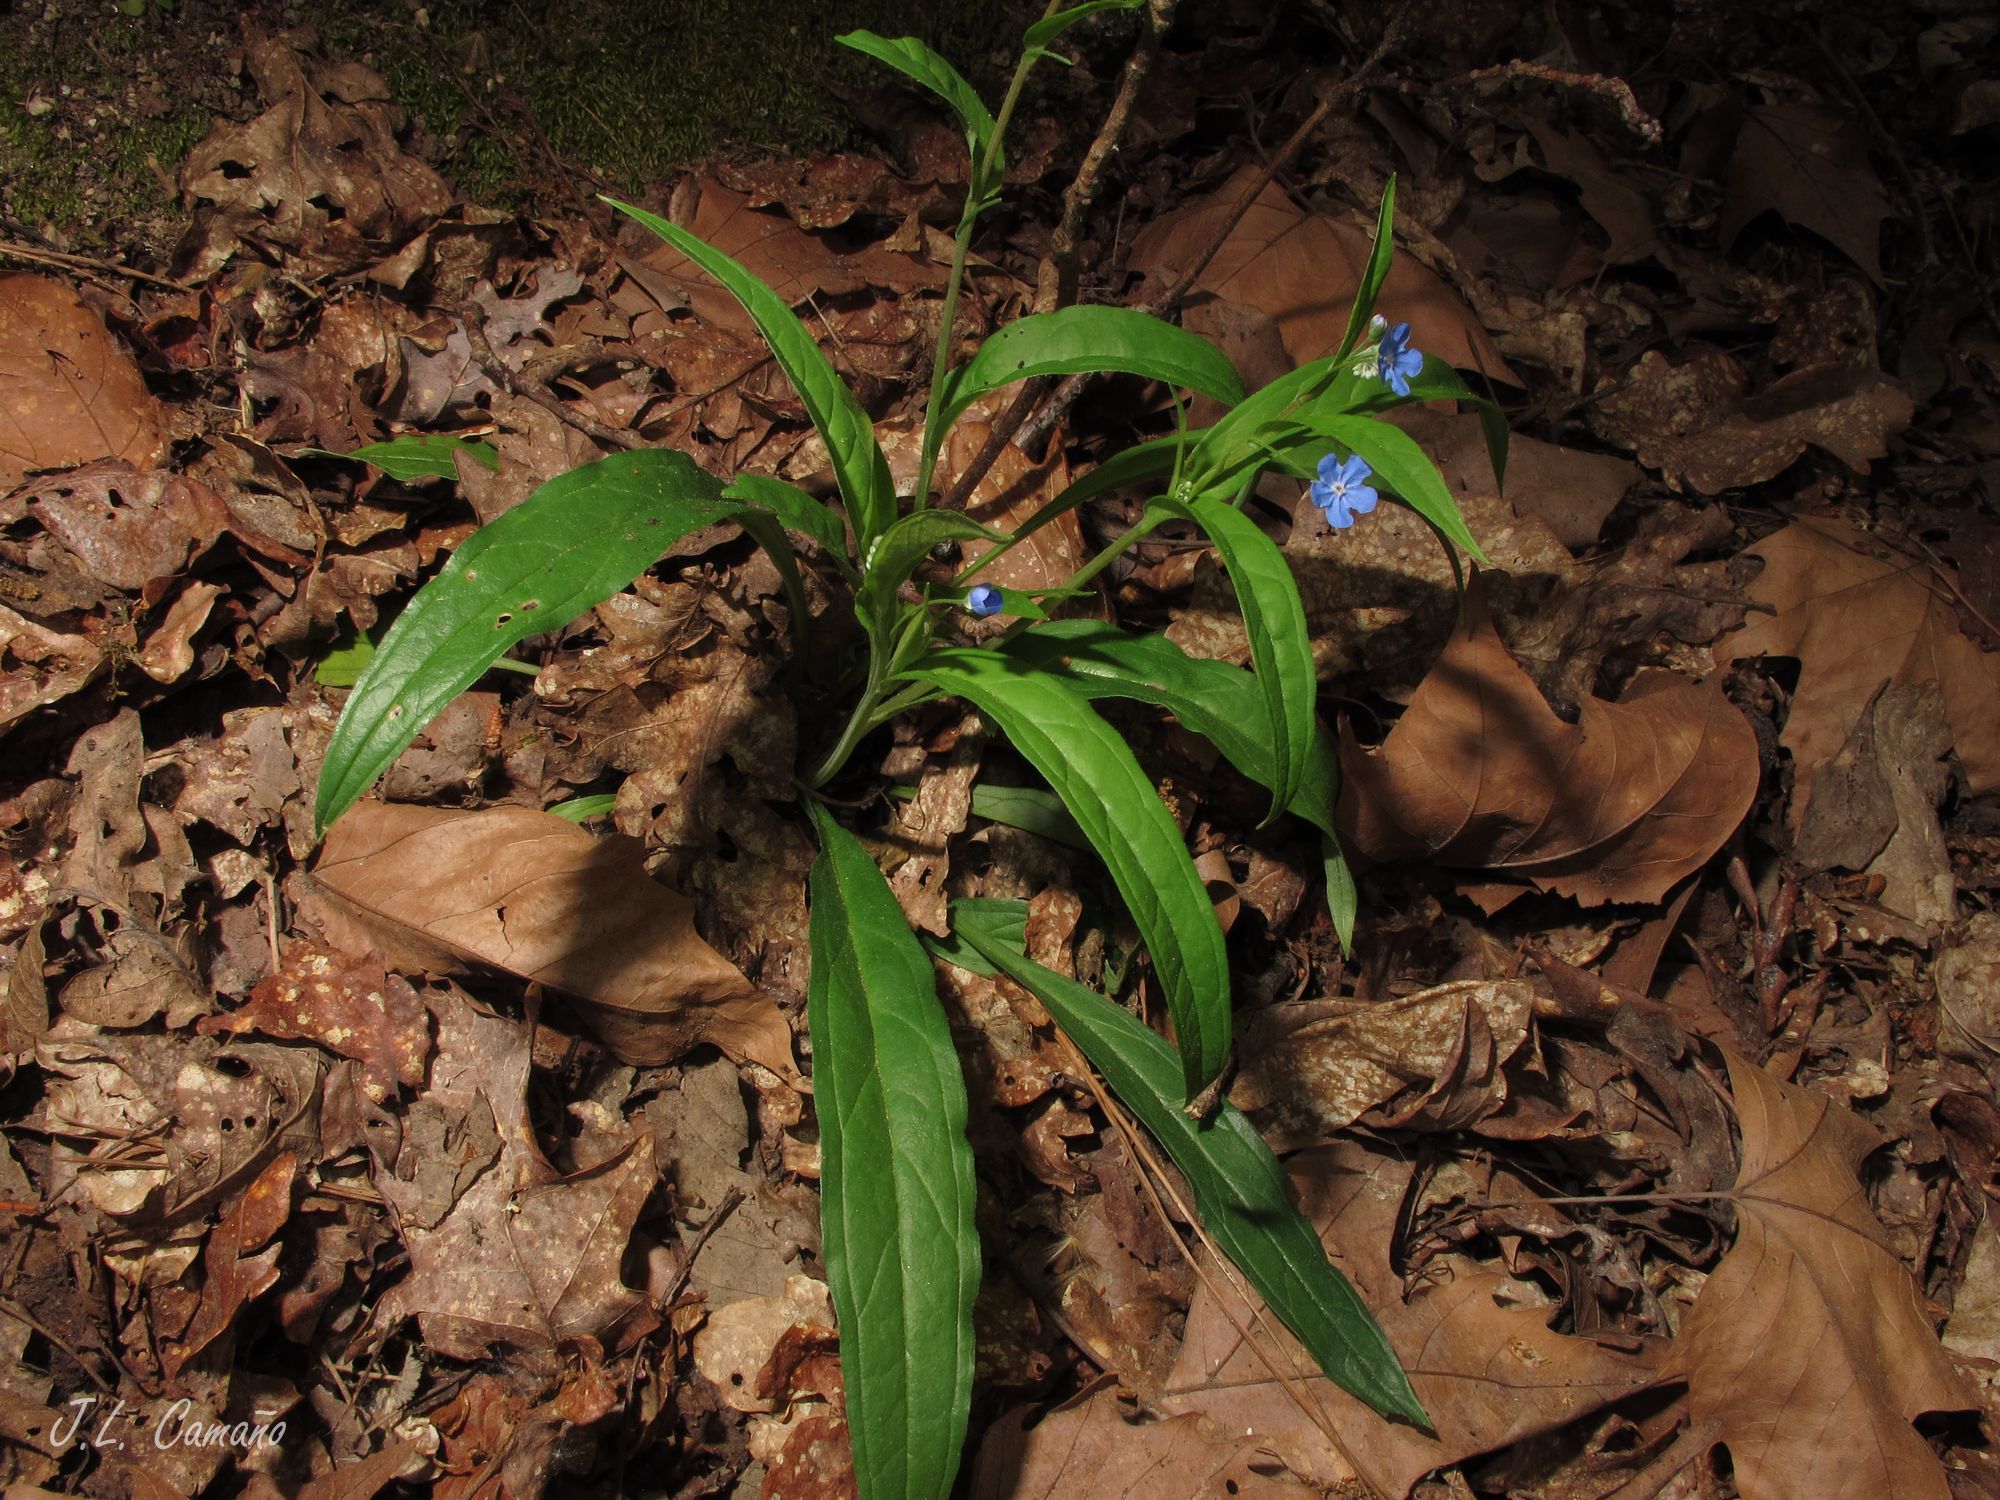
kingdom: Plantae
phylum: Tracheophyta
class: Magnoliopsida
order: Boraginales
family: Boraginaceae
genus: Omphalodes
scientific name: Omphalodes nitida
